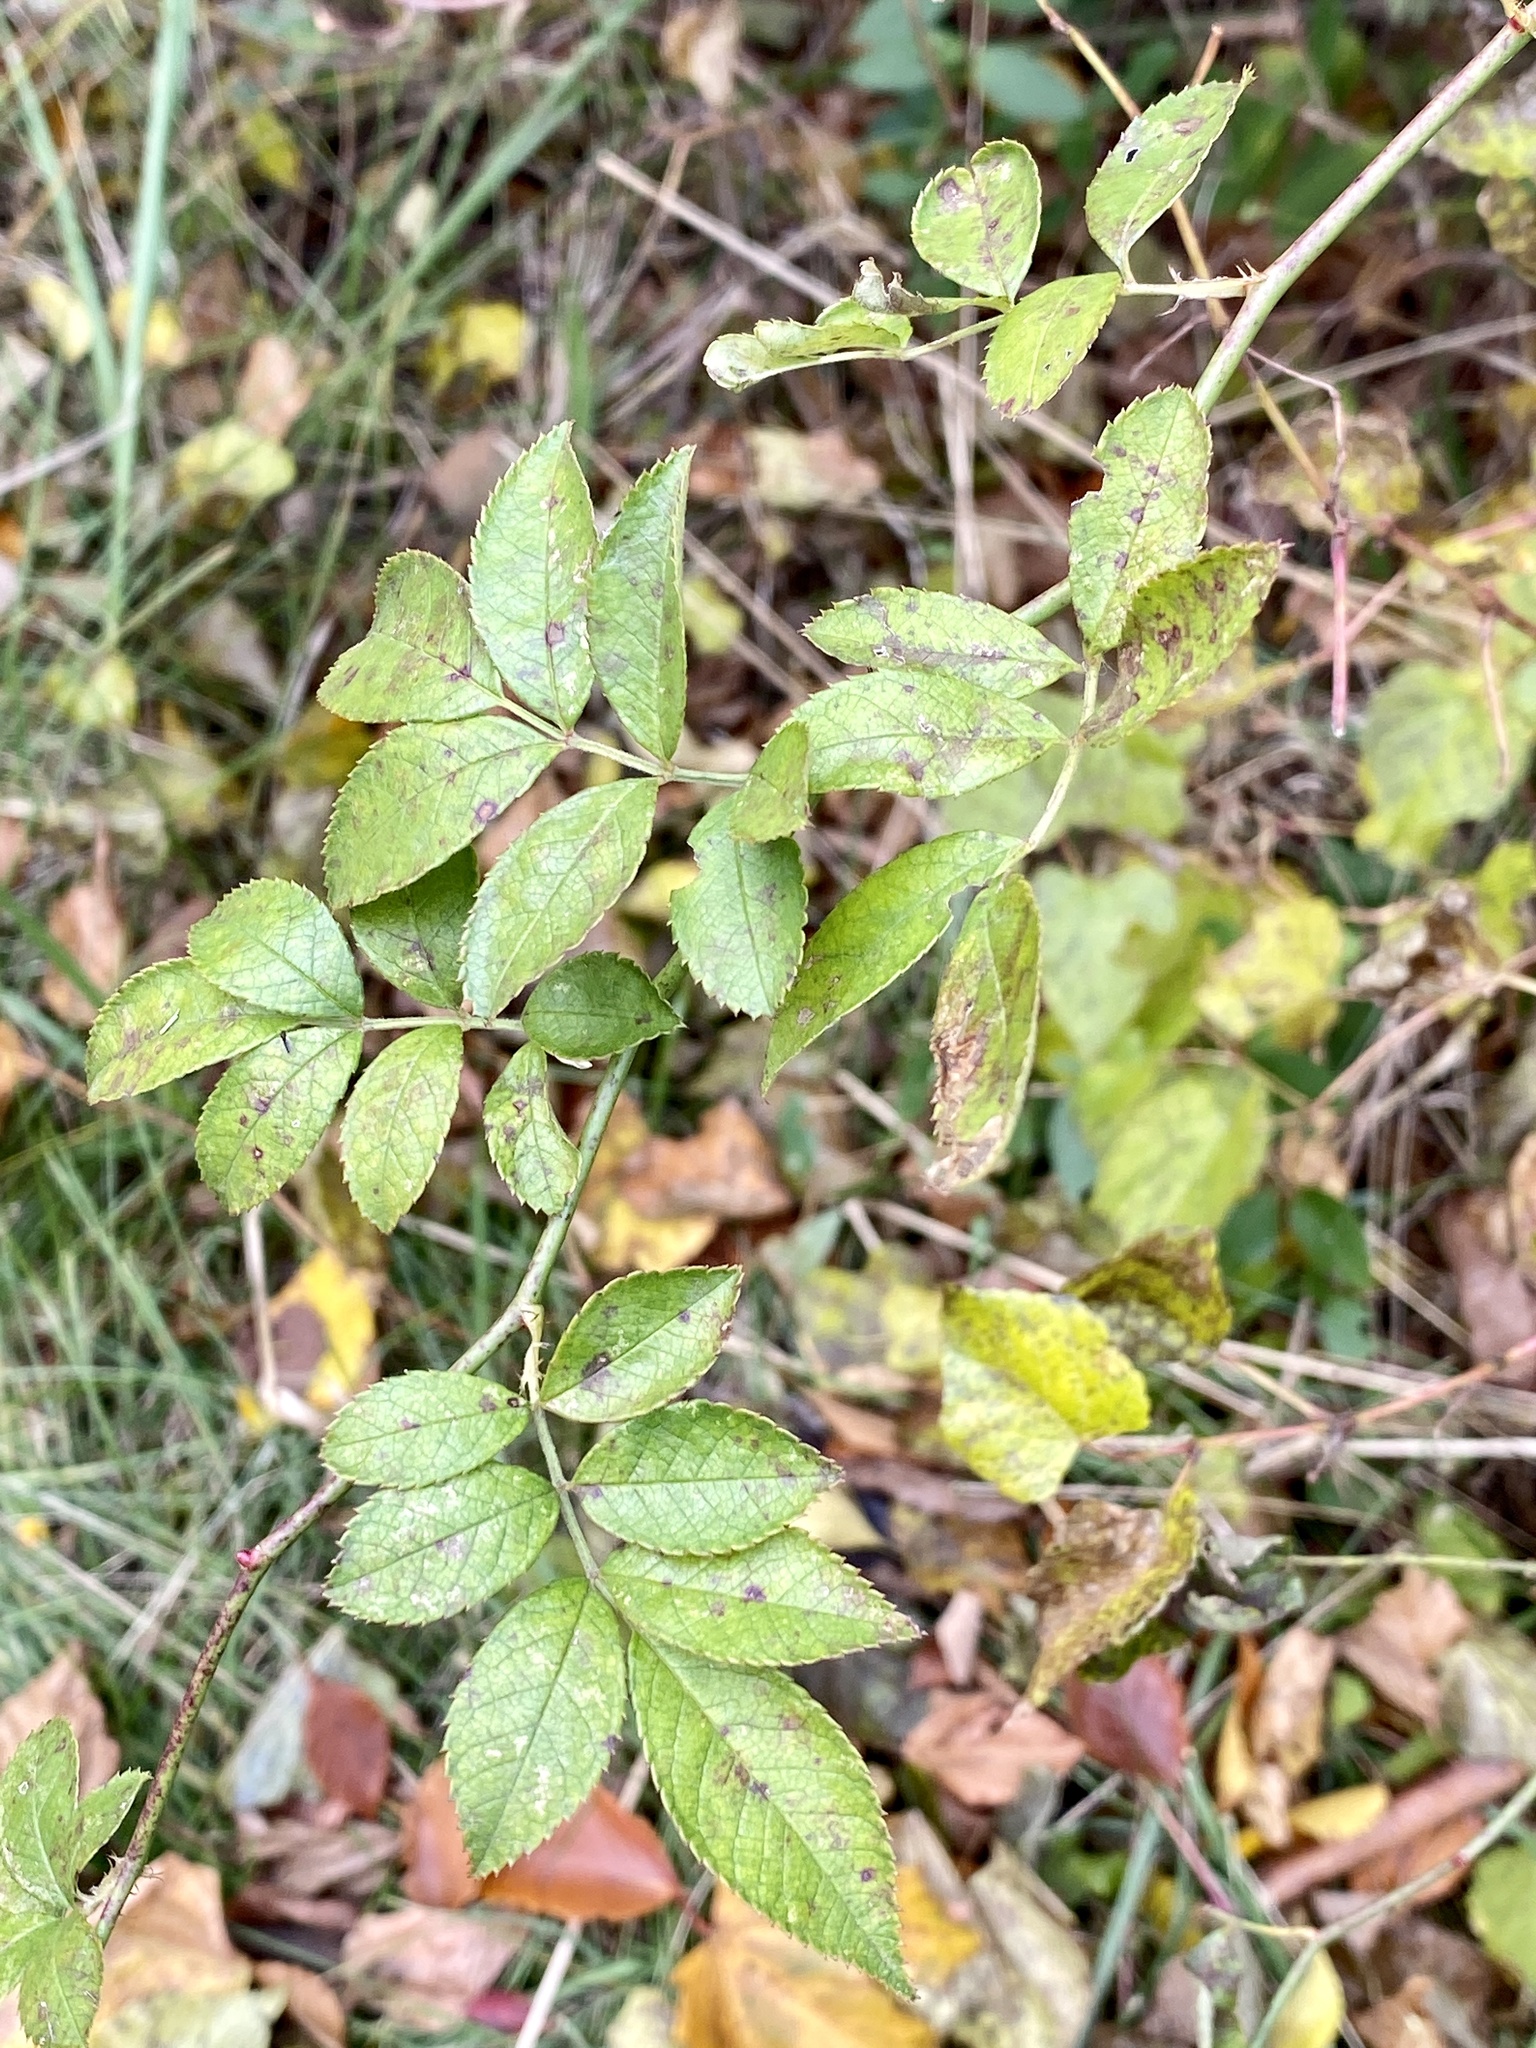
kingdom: Plantae
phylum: Tracheophyta
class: Magnoliopsida
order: Rosales
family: Rosaceae
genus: Rosa
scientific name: Rosa multiflora
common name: Multiflora rose
